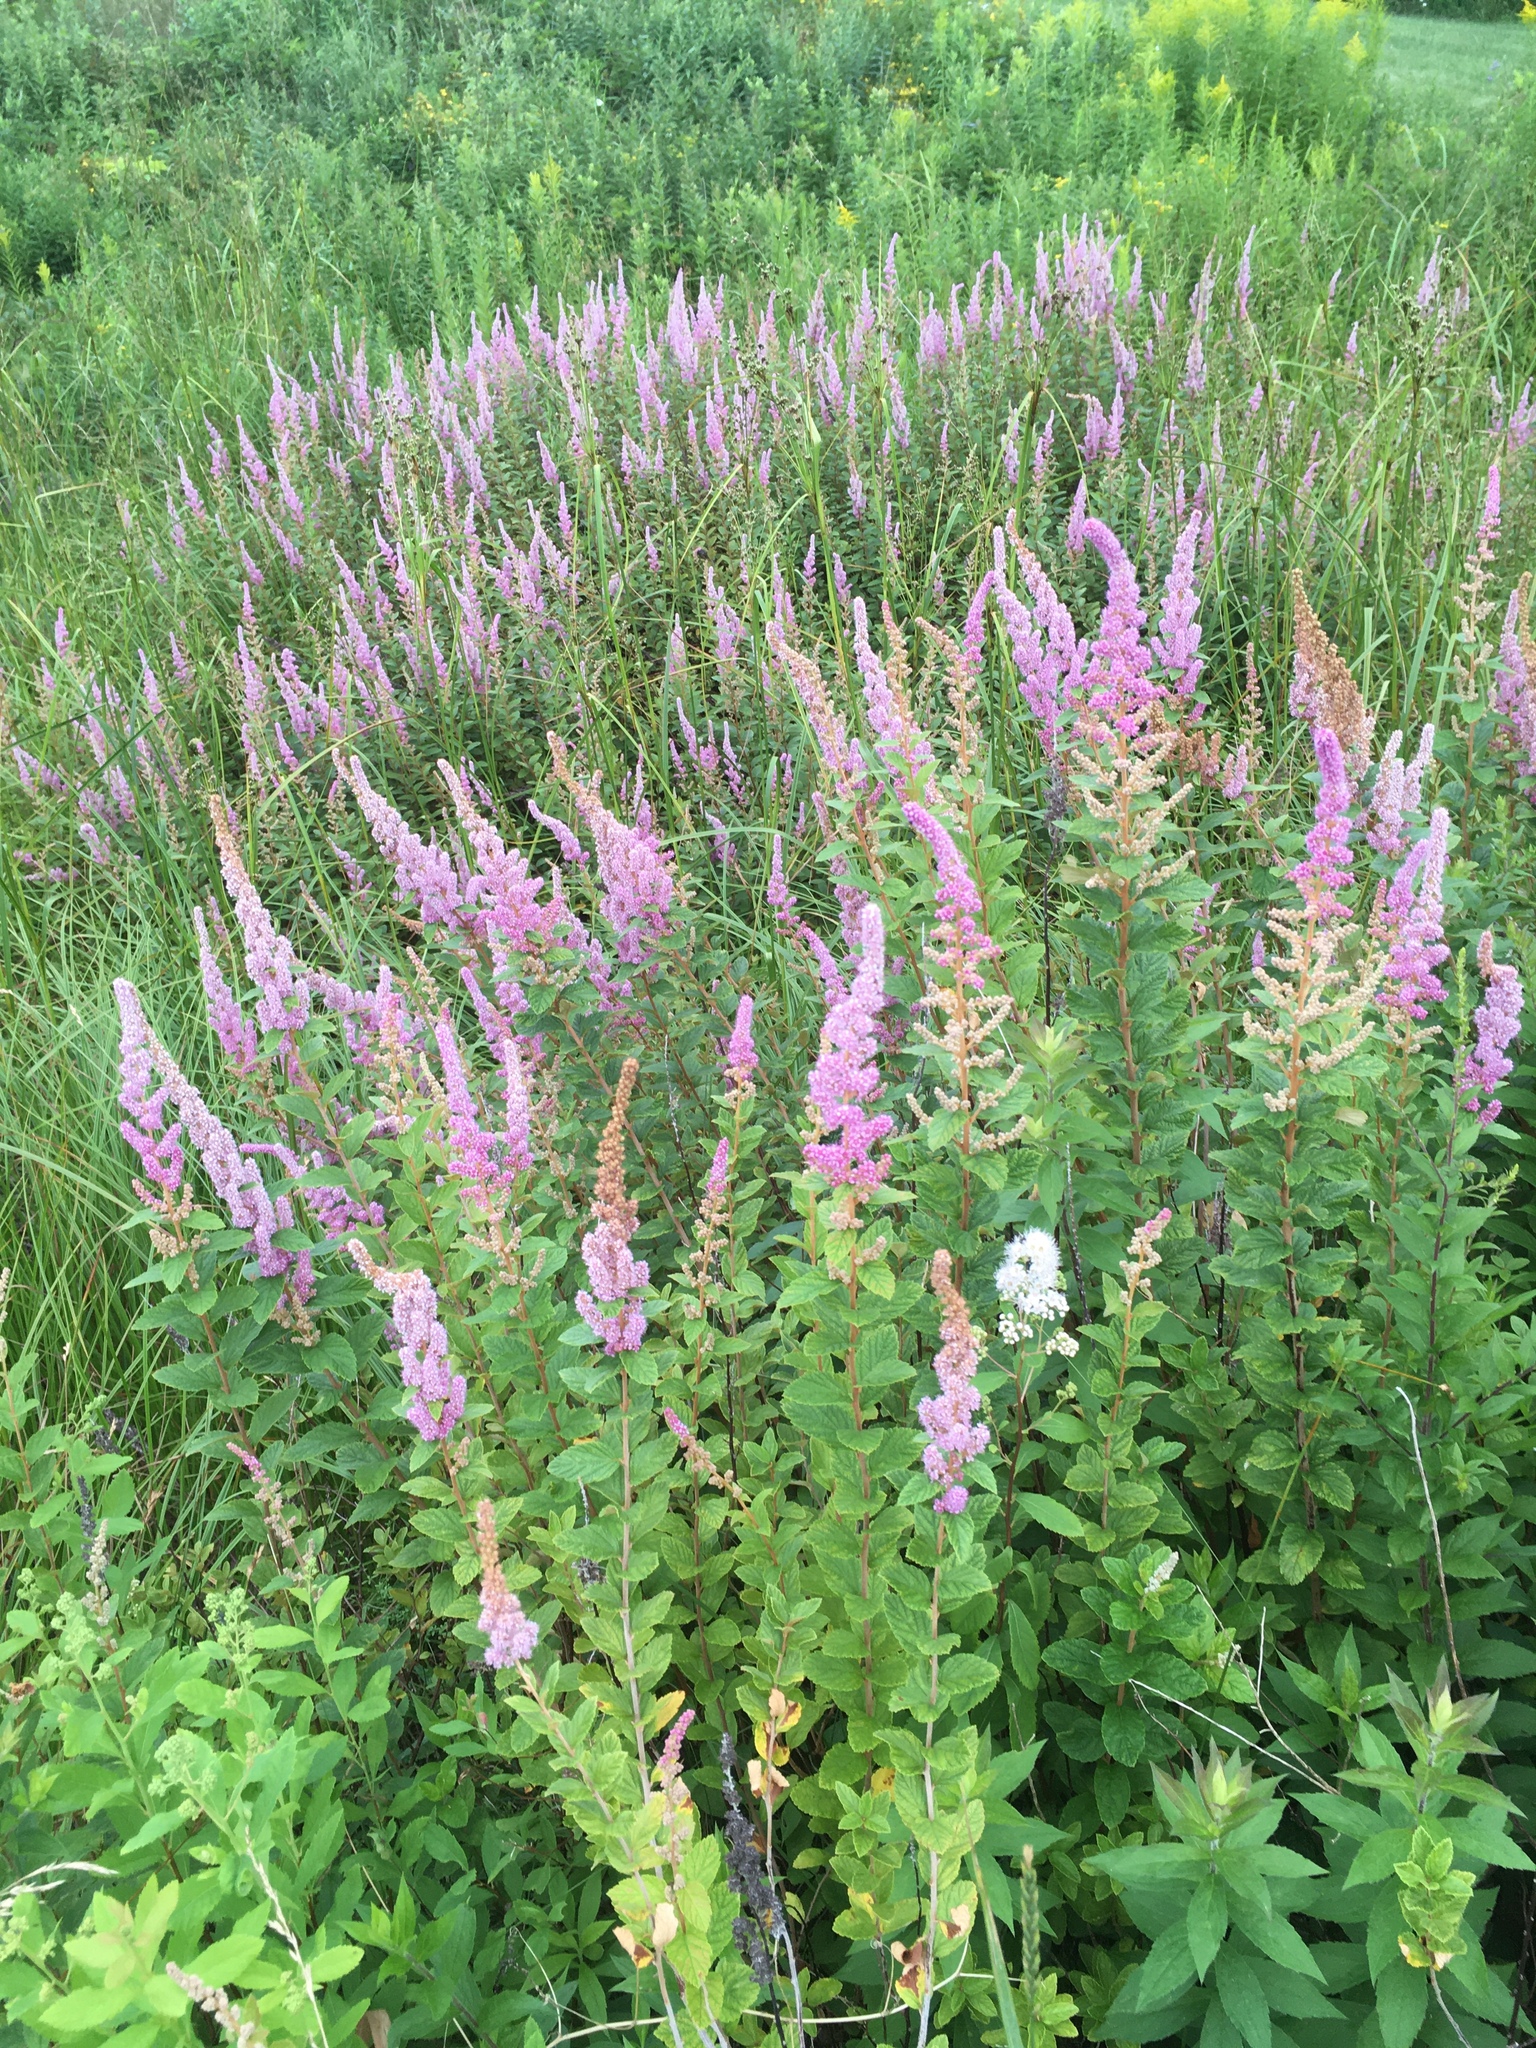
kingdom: Plantae
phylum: Tracheophyta
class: Magnoliopsida
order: Rosales
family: Rosaceae
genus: Spiraea
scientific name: Spiraea tomentosa
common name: Hardhack
